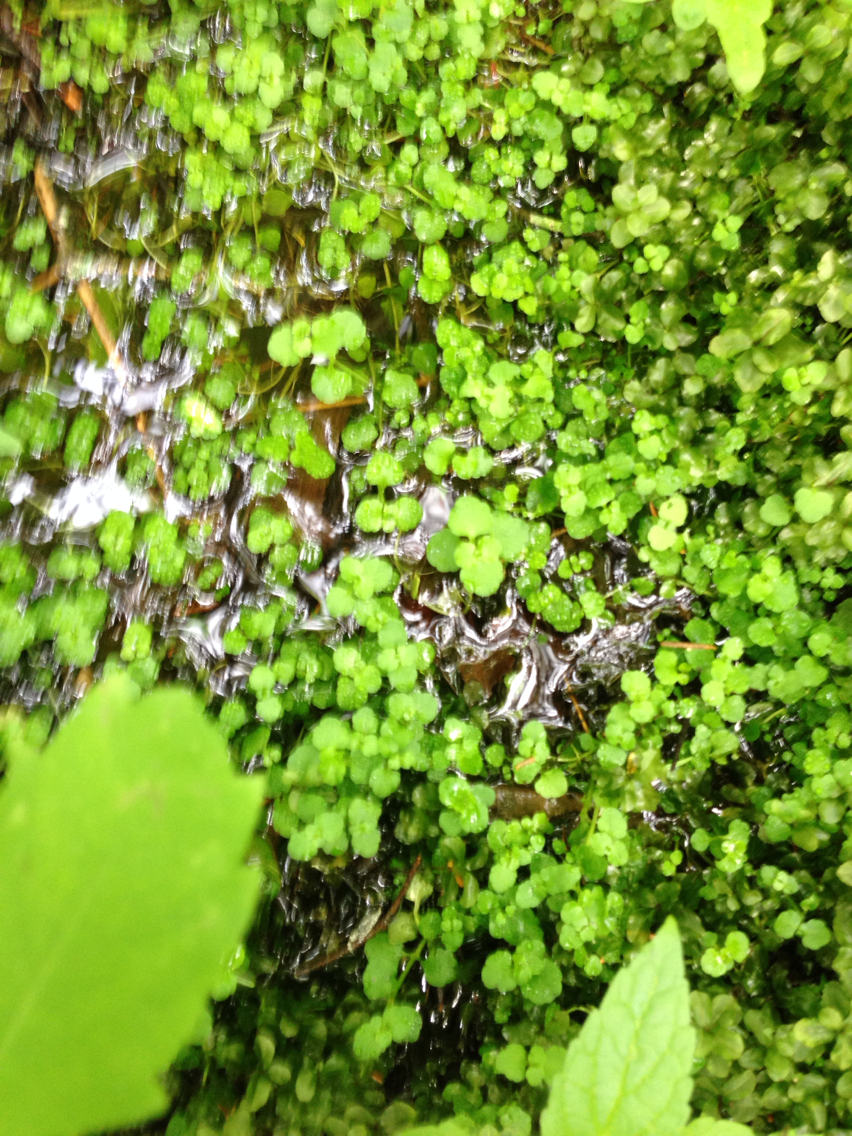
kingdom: Plantae
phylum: Tracheophyta
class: Magnoliopsida
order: Saxifragales
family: Saxifragaceae
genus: Chrysosplenium
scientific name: Chrysosplenium americanum
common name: American golden-saxifrage
